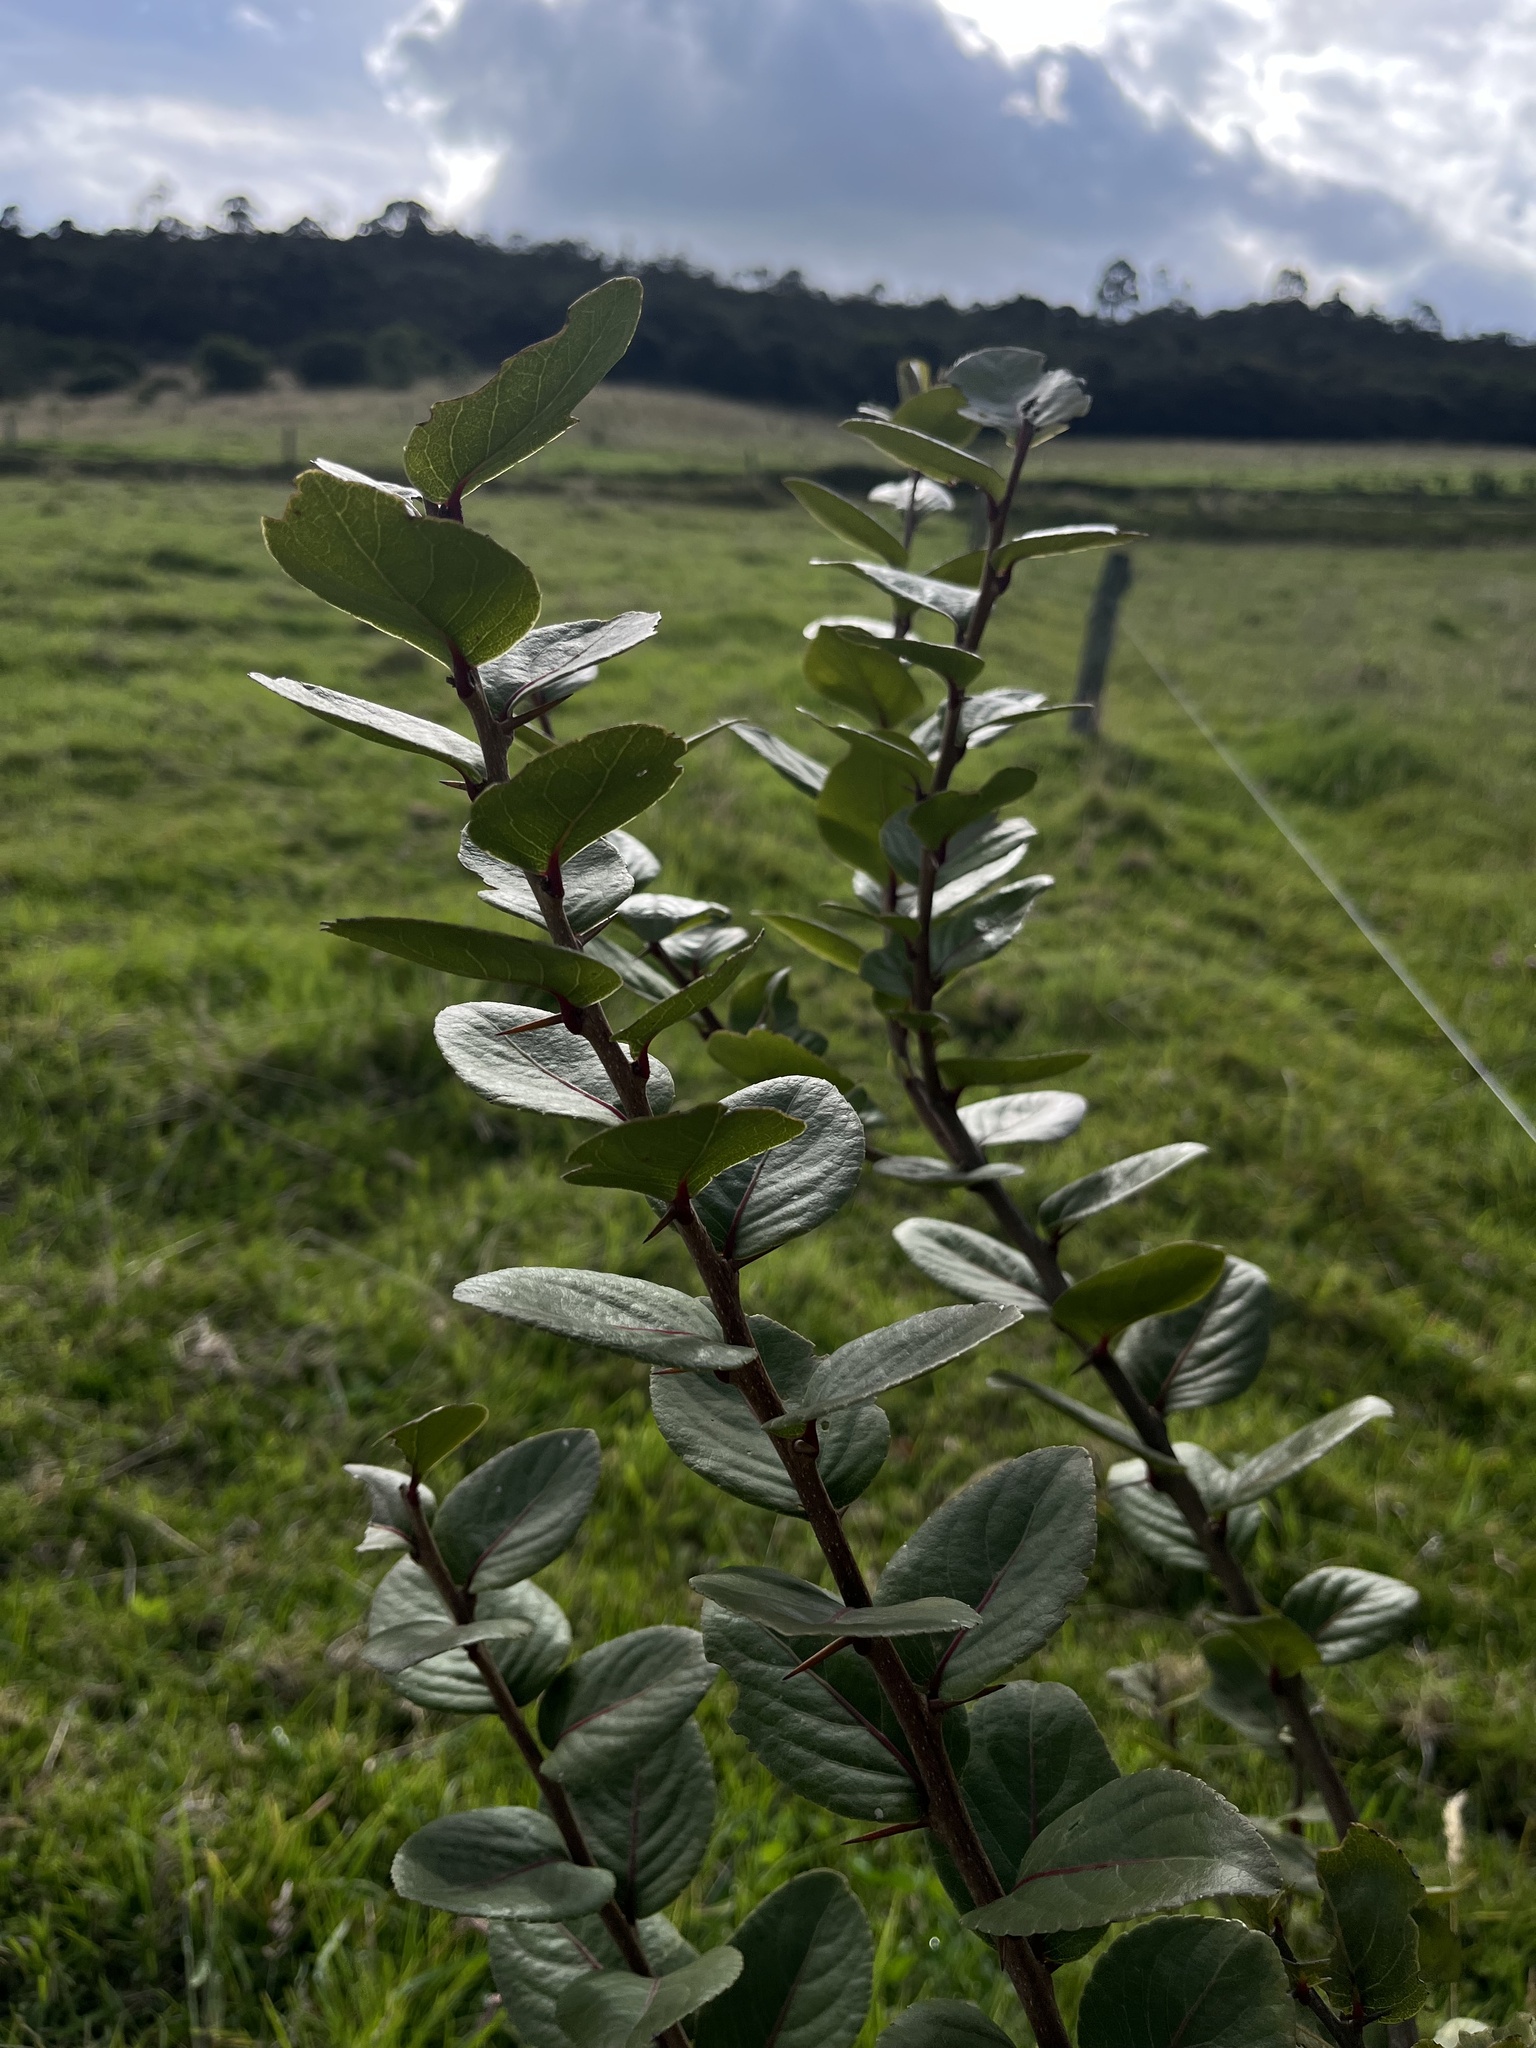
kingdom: Plantae
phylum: Tracheophyta
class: Magnoliopsida
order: Malpighiales
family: Salicaceae
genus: Xylosma
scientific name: Xylosma spiculifera
